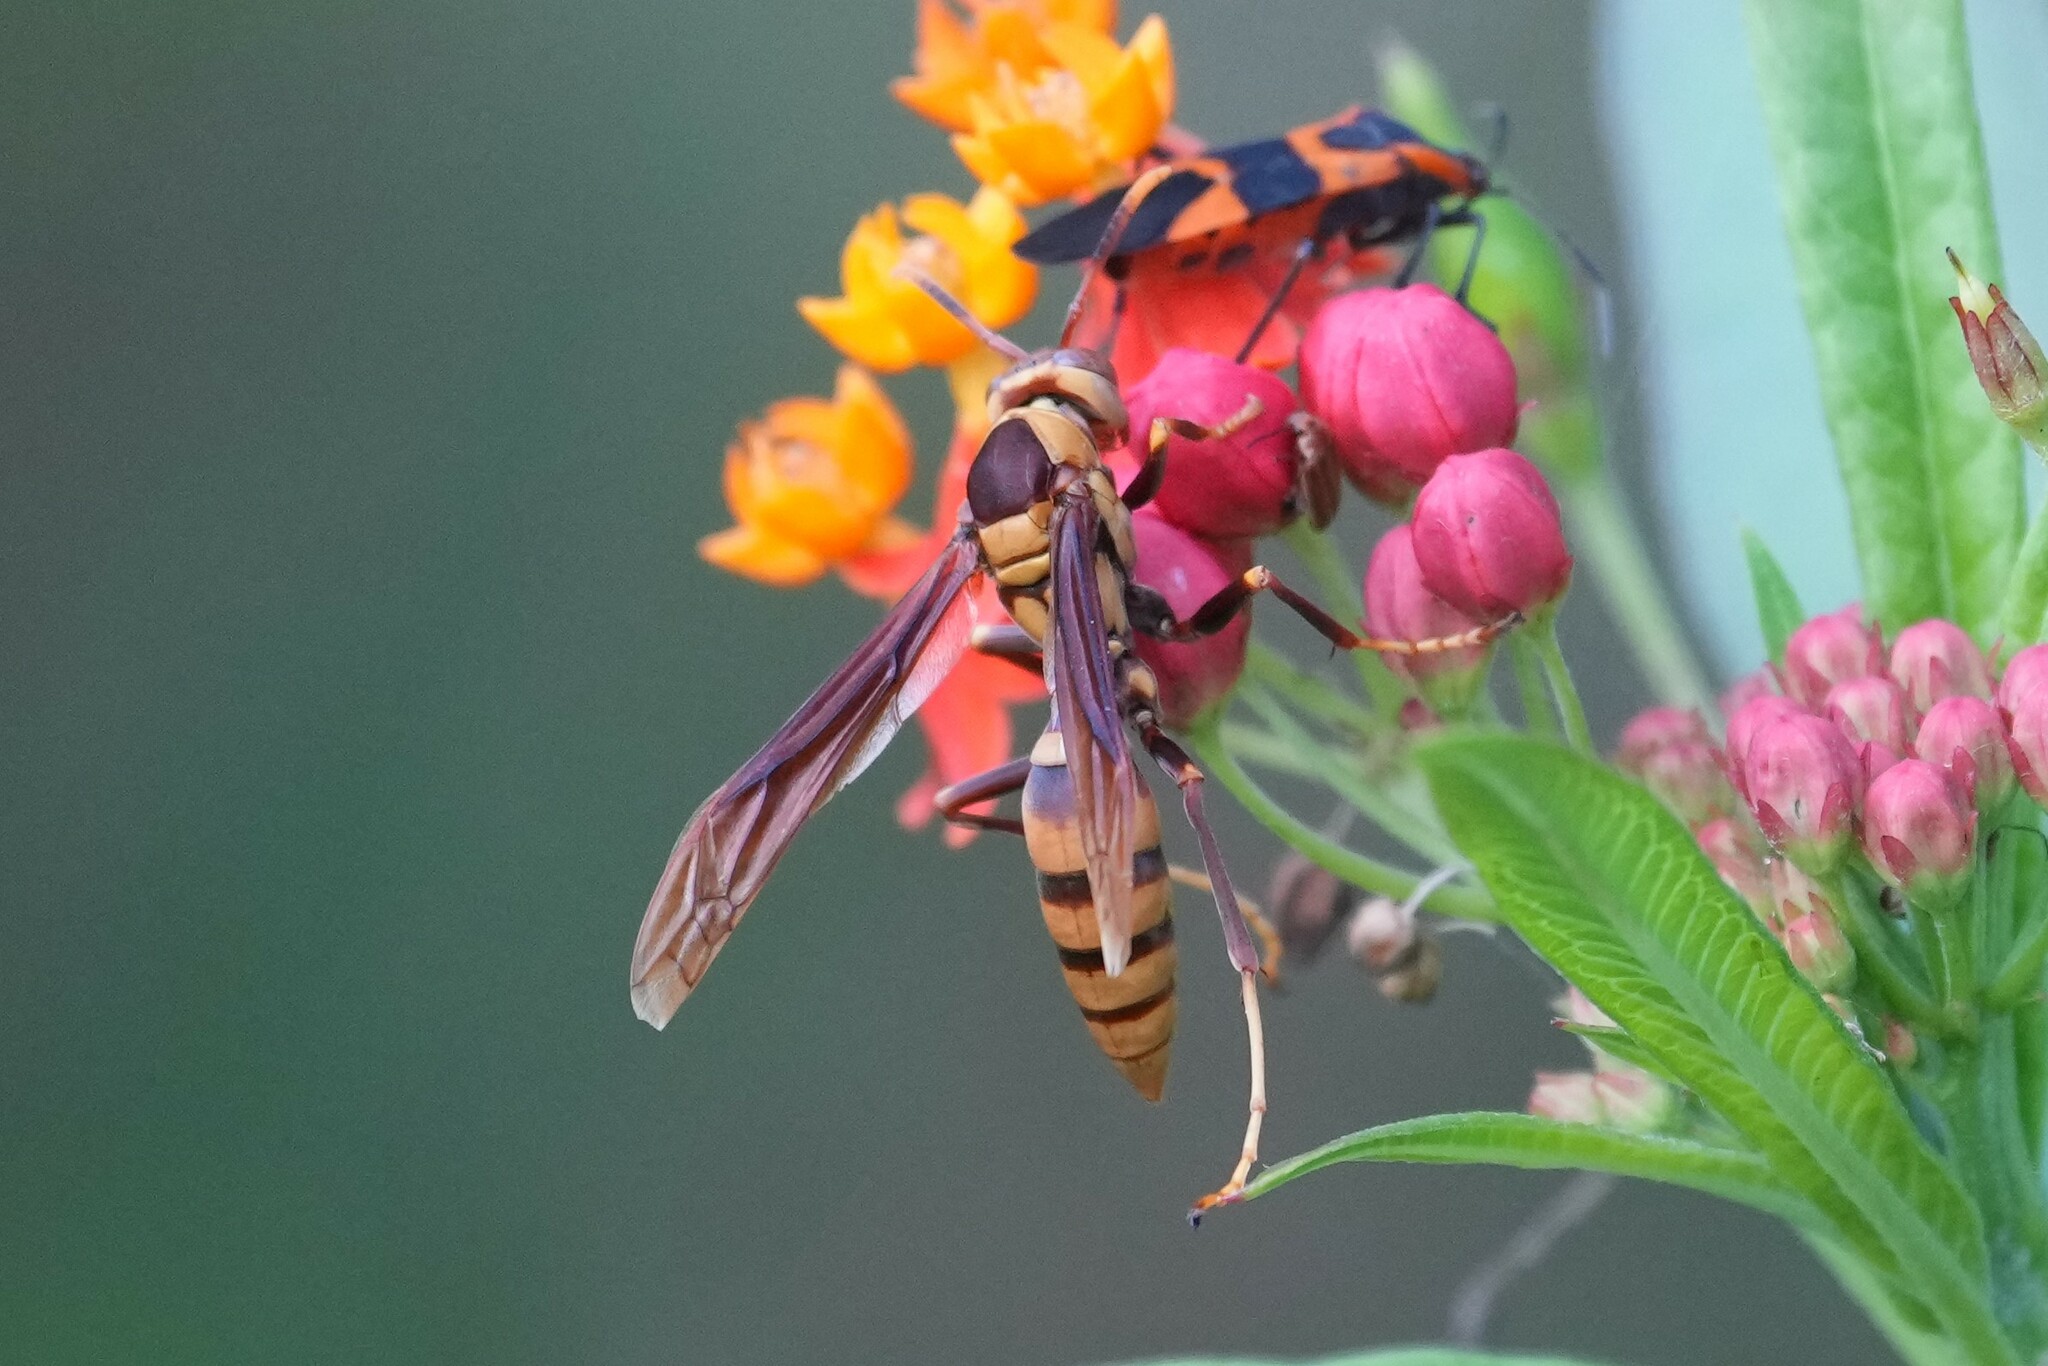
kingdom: Animalia
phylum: Arthropoda
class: Insecta
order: Hymenoptera
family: Eumenidae
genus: Polistes
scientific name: Polistes major
